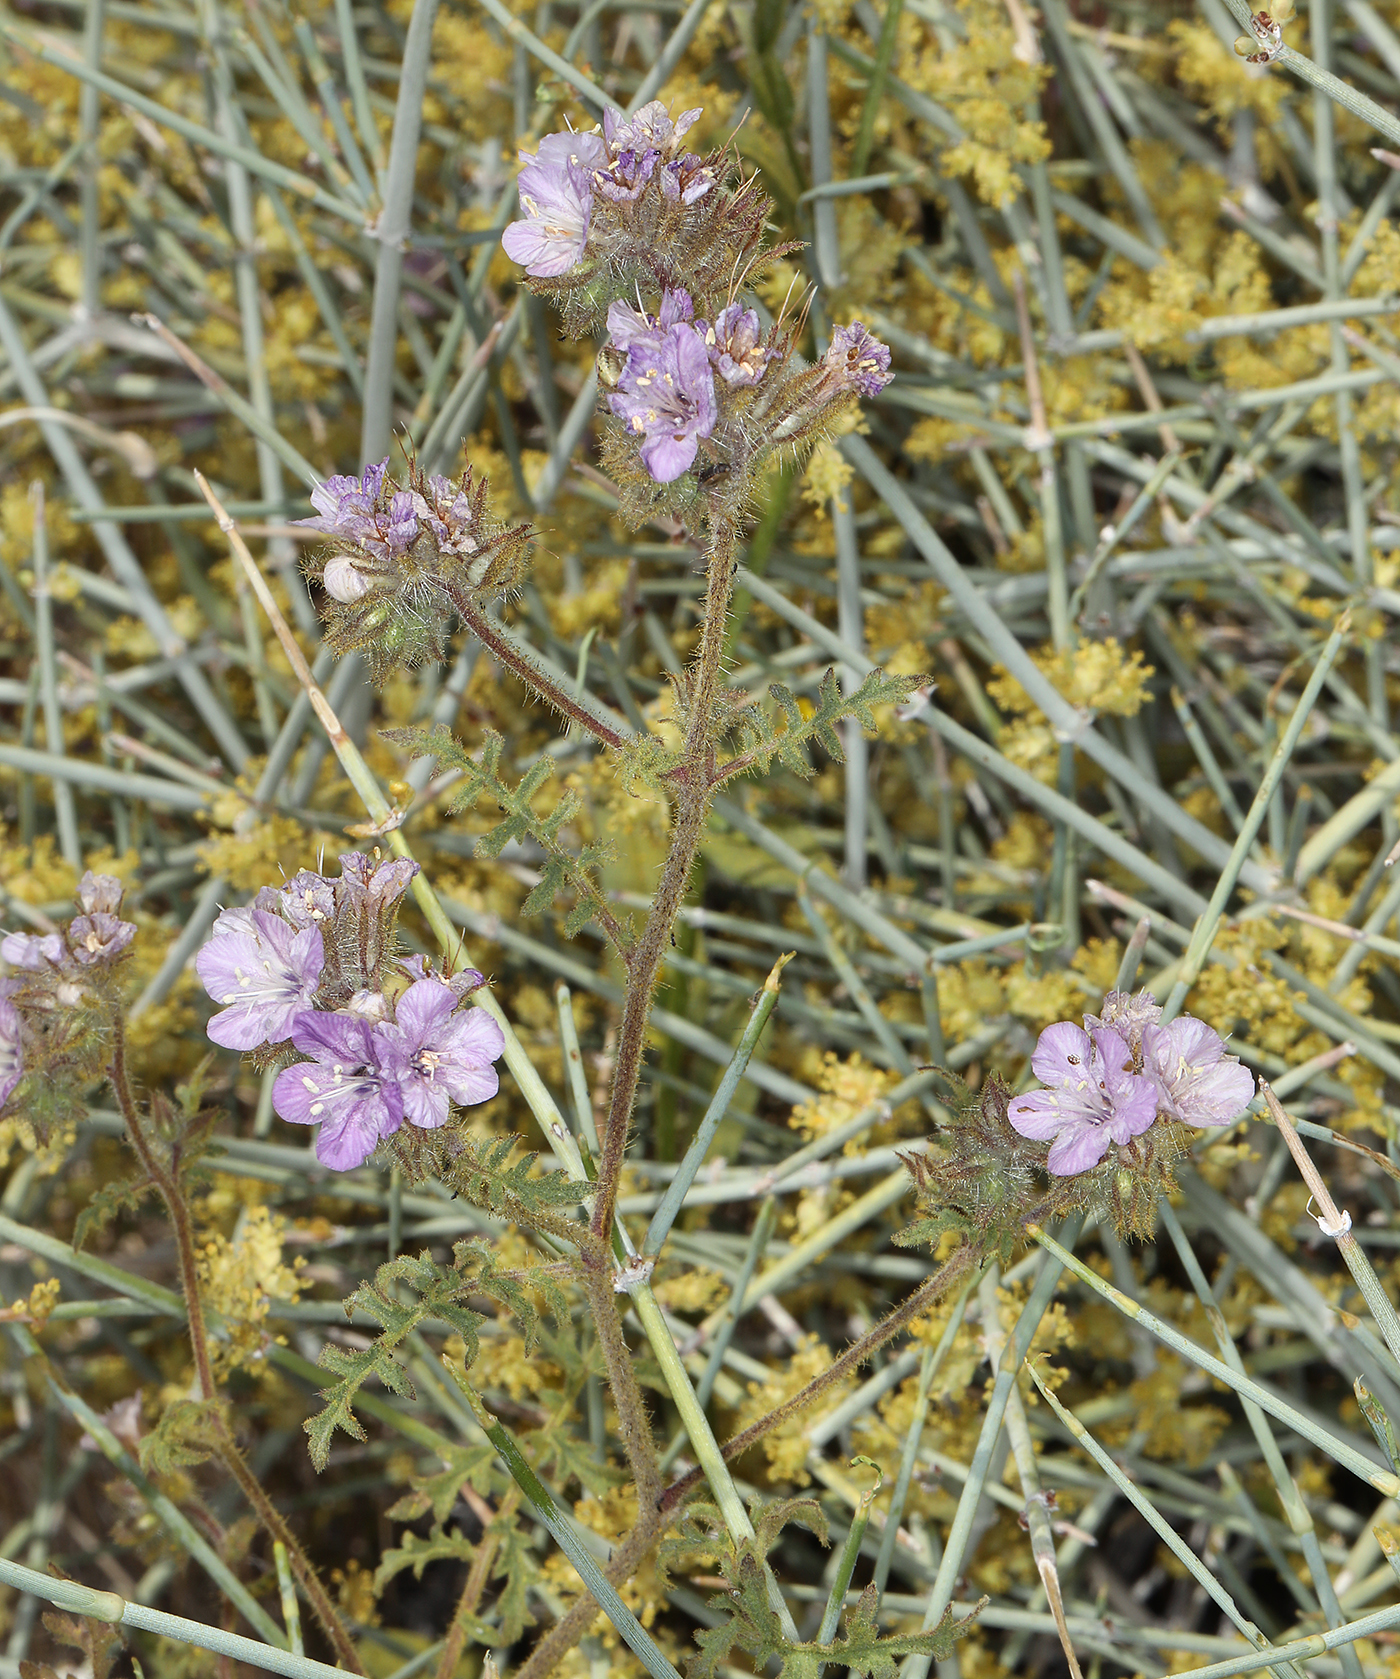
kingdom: Plantae
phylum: Tracheophyta
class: Magnoliopsida
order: Boraginales
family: Hydrophyllaceae
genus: Phacelia
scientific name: Phacelia vallis-mortae
